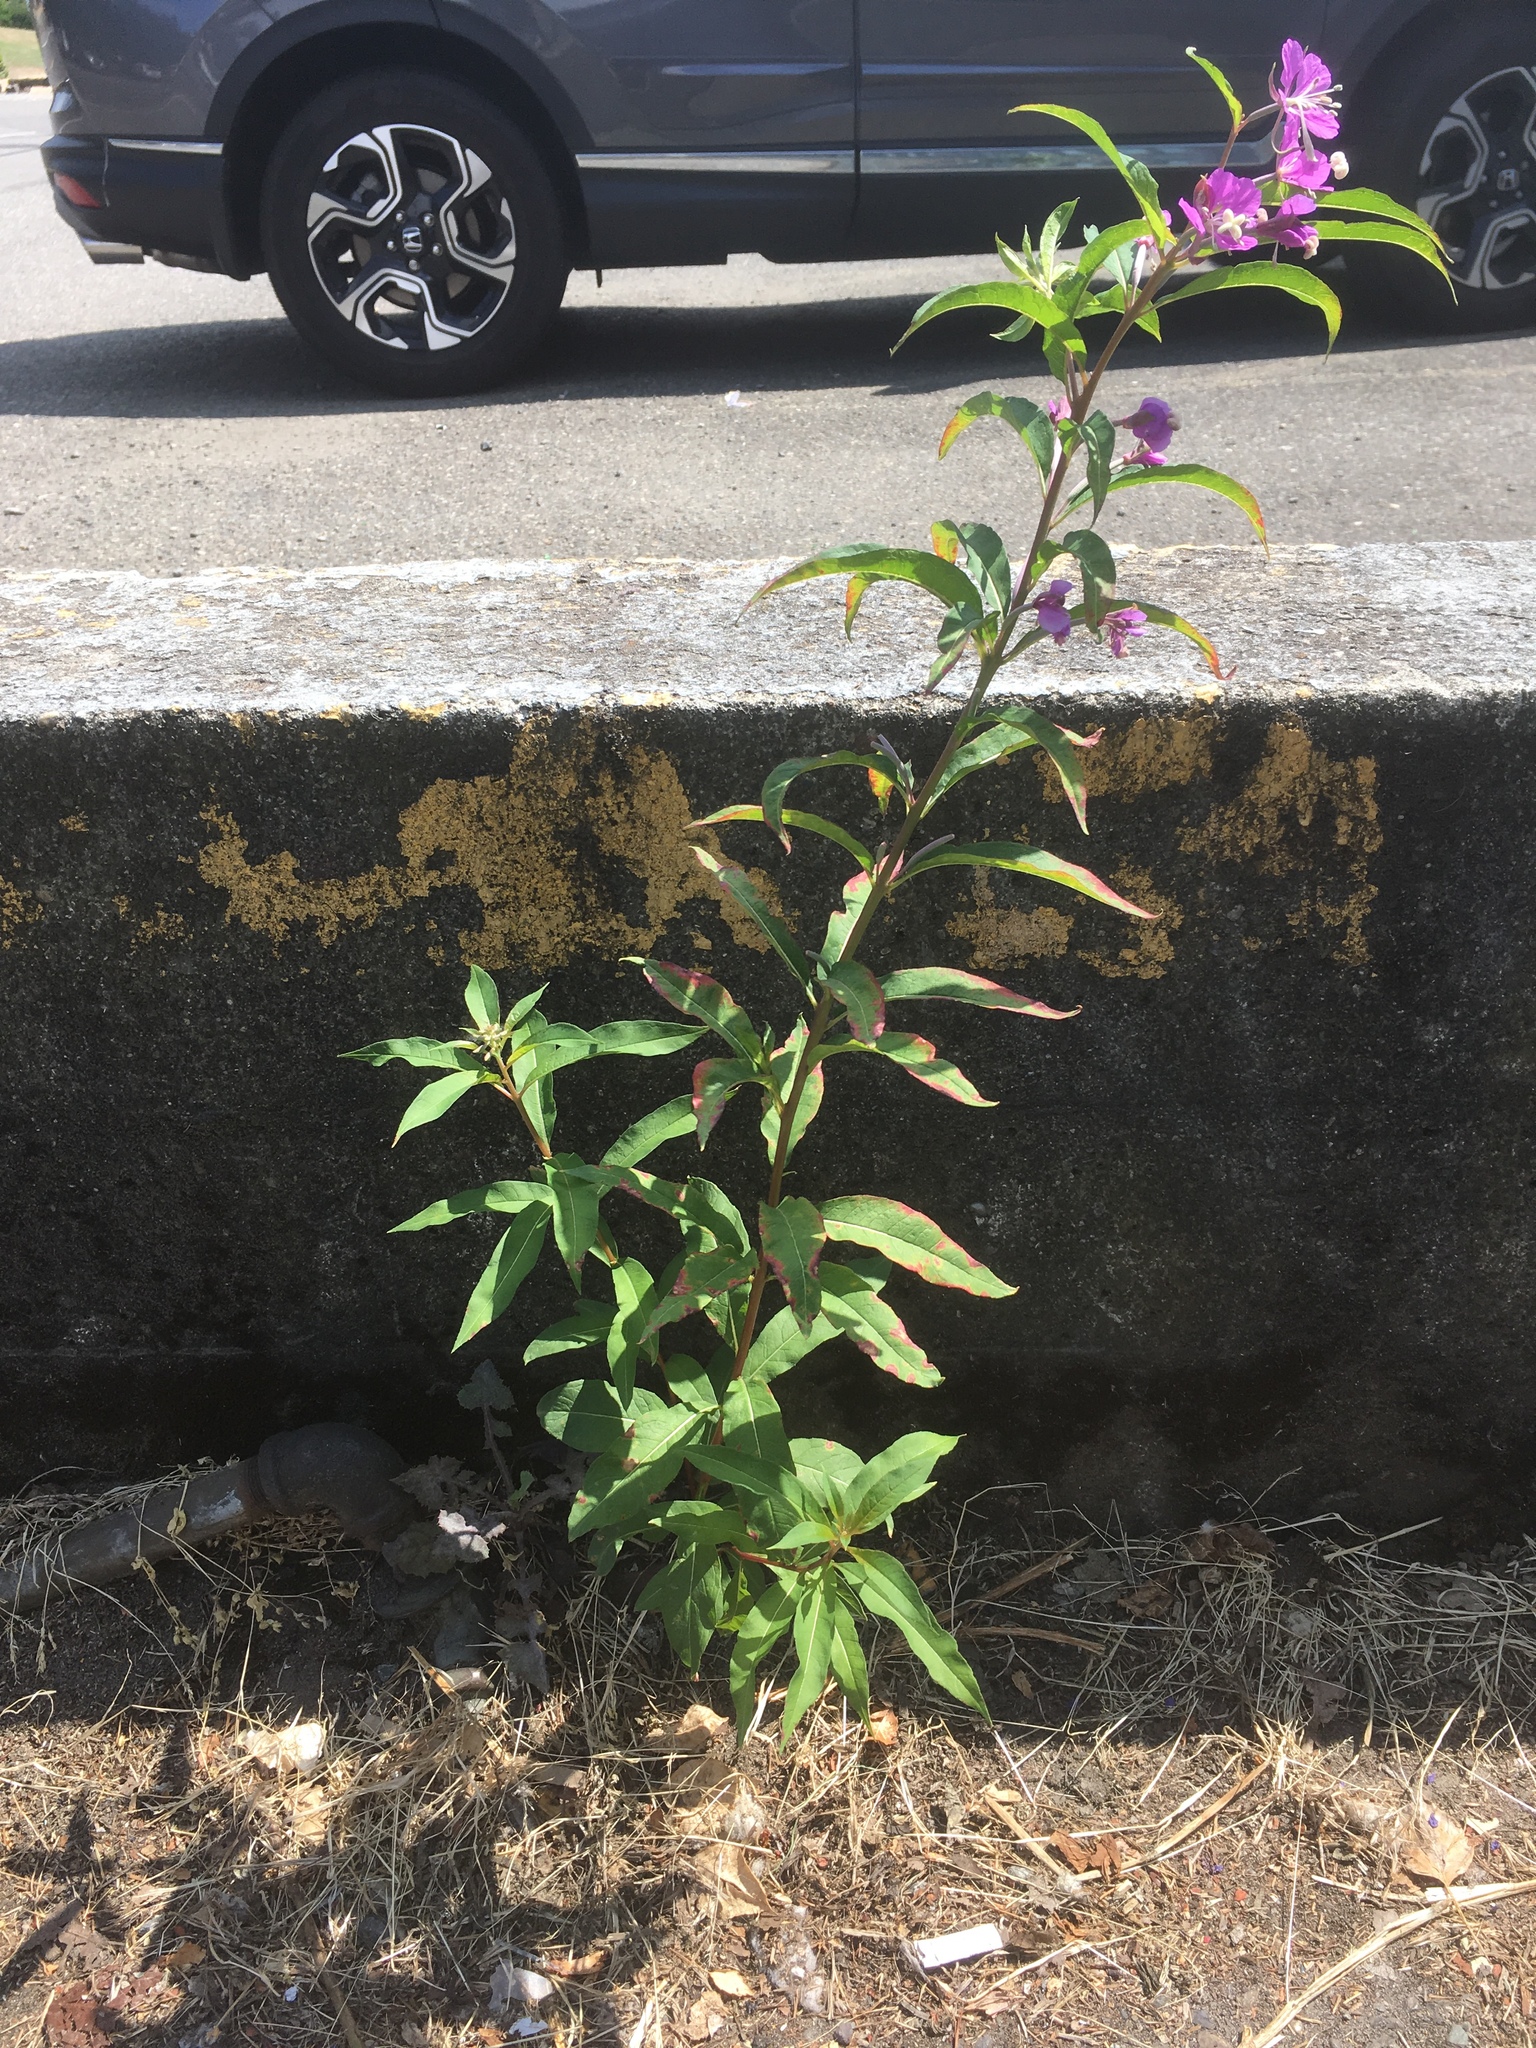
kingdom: Plantae
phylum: Tracheophyta
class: Magnoliopsida
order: Myrtales
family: Onagraceae
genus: Chamaenerion
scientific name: Chamaenerion angustifolium
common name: Fireweed
